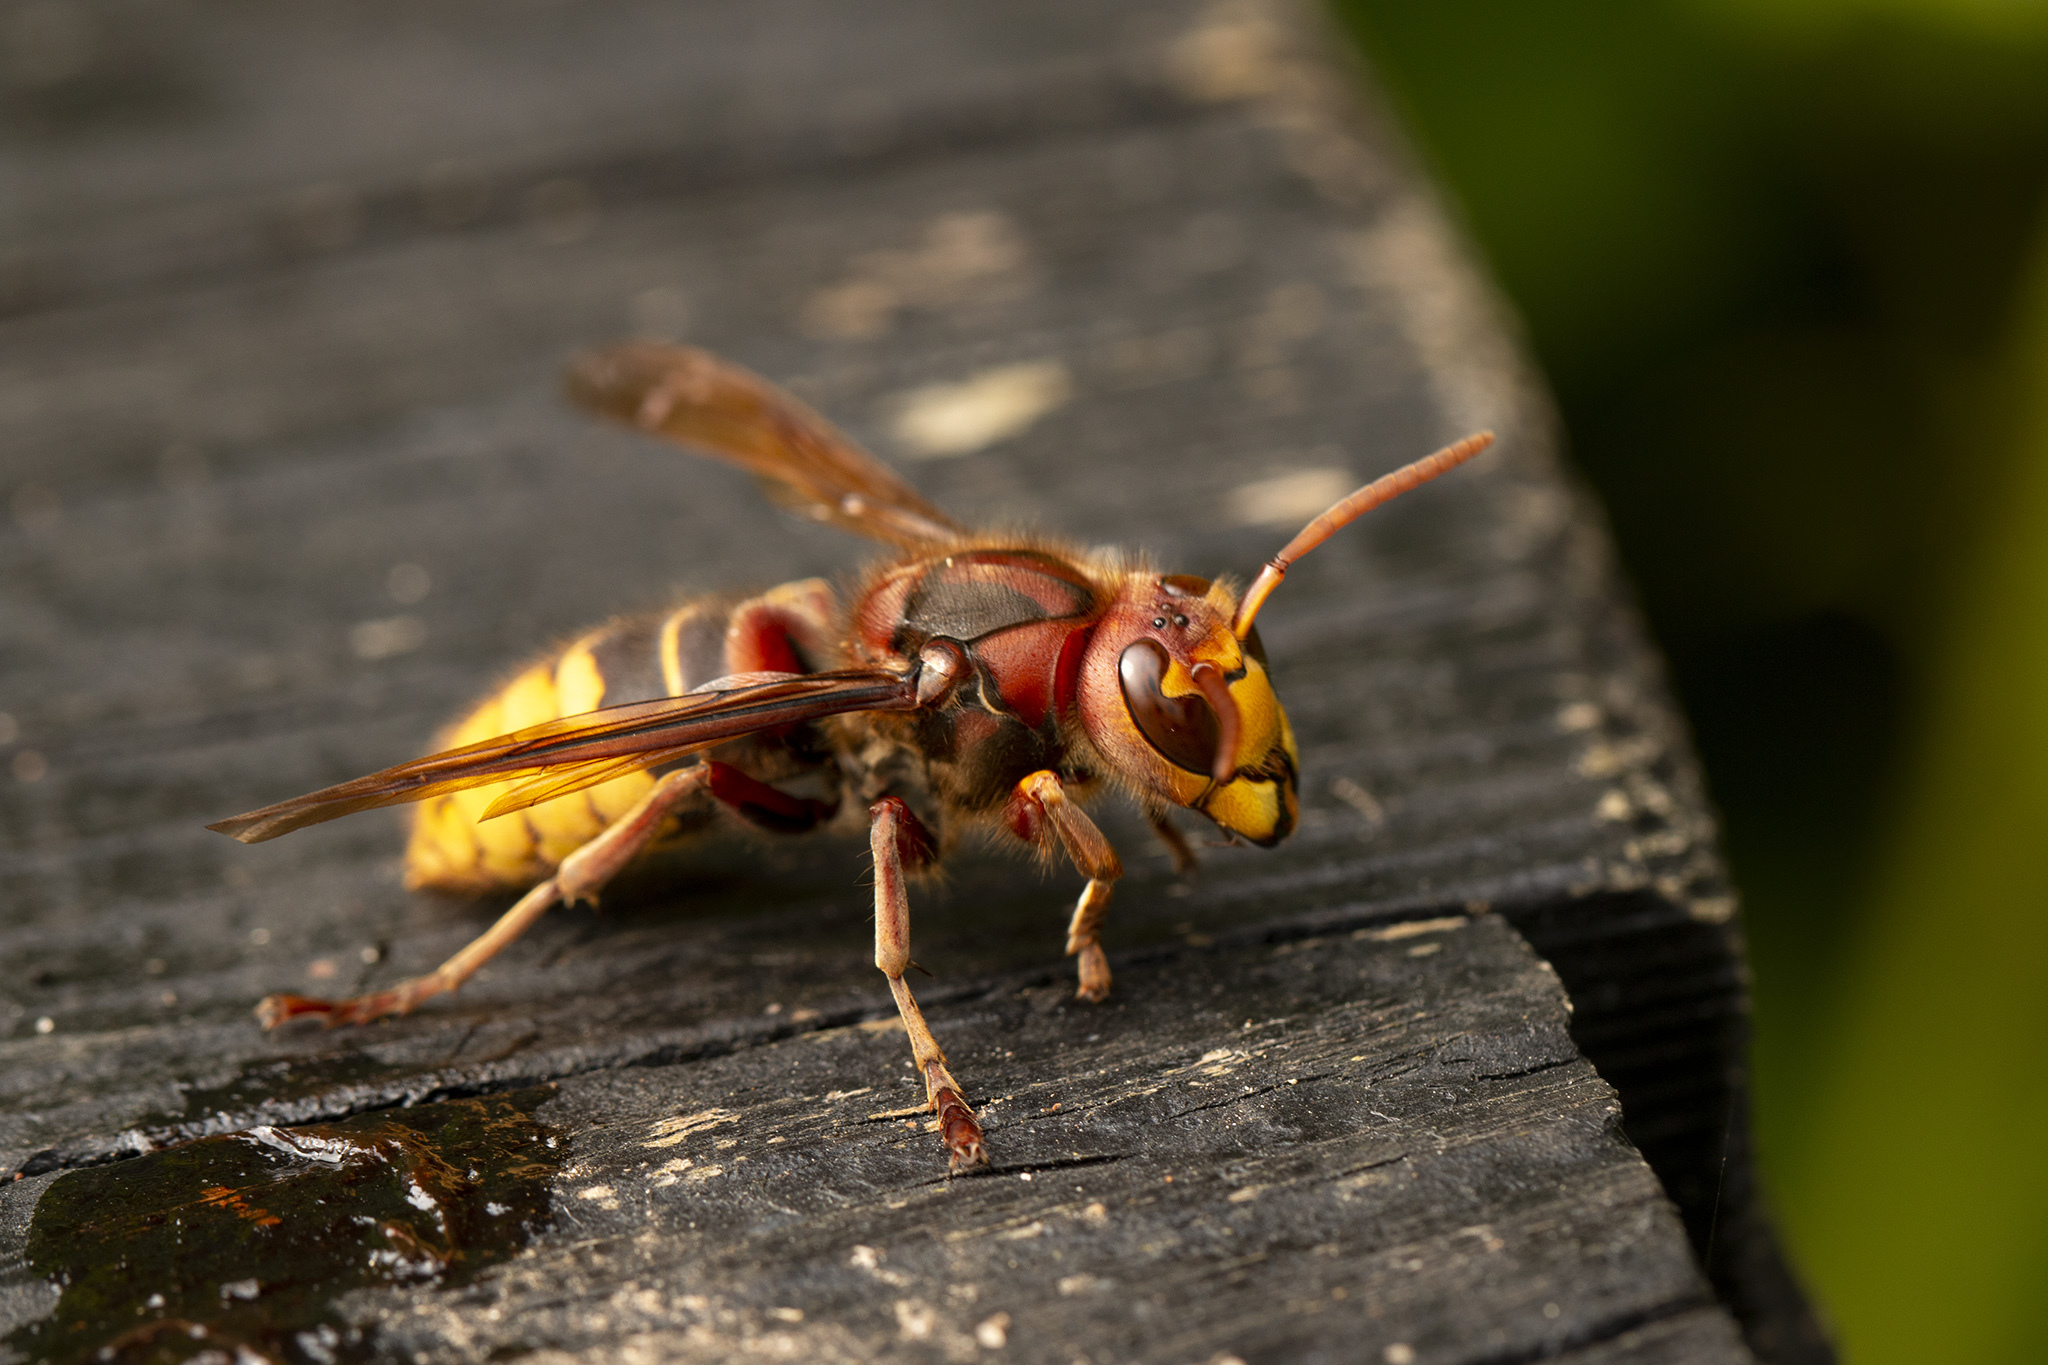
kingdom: Animalia
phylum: Arthropoda
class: Insecta
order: Hymenoptera
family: Vespidae
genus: Vespa
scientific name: Vespa crabro
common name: Hornet
